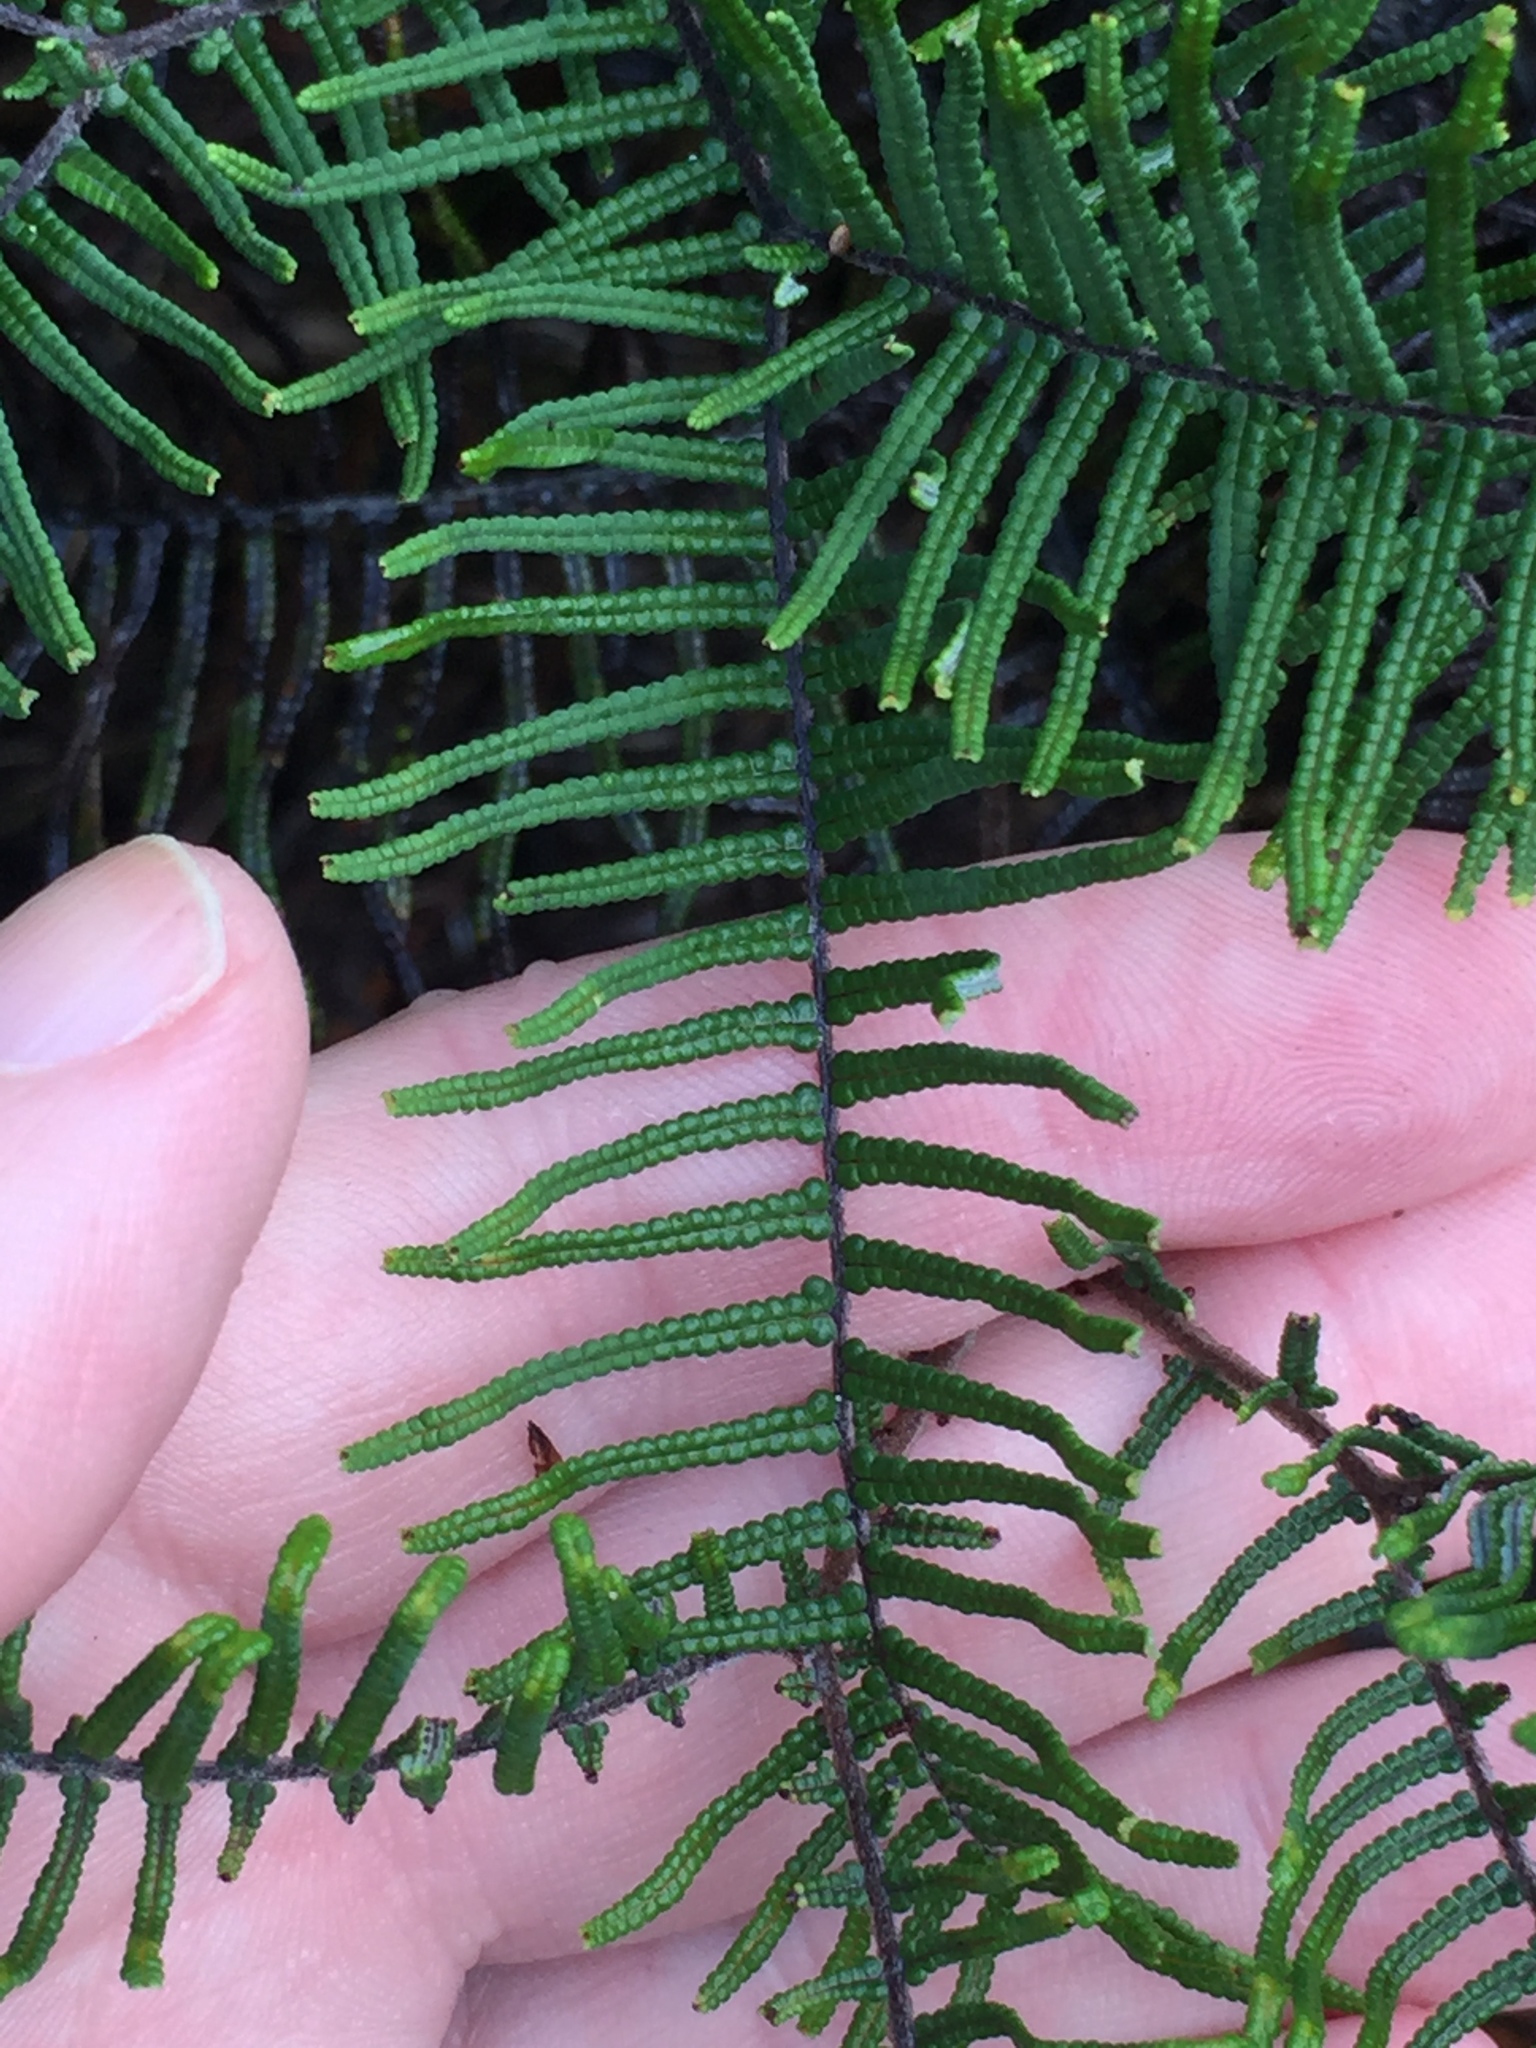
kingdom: Plantae
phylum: Tracheophyta
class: Polypodiopsida
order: Gleicheniales
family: Gleicheniaceae
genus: Gleichenia
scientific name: Gleichenia dicarpa
